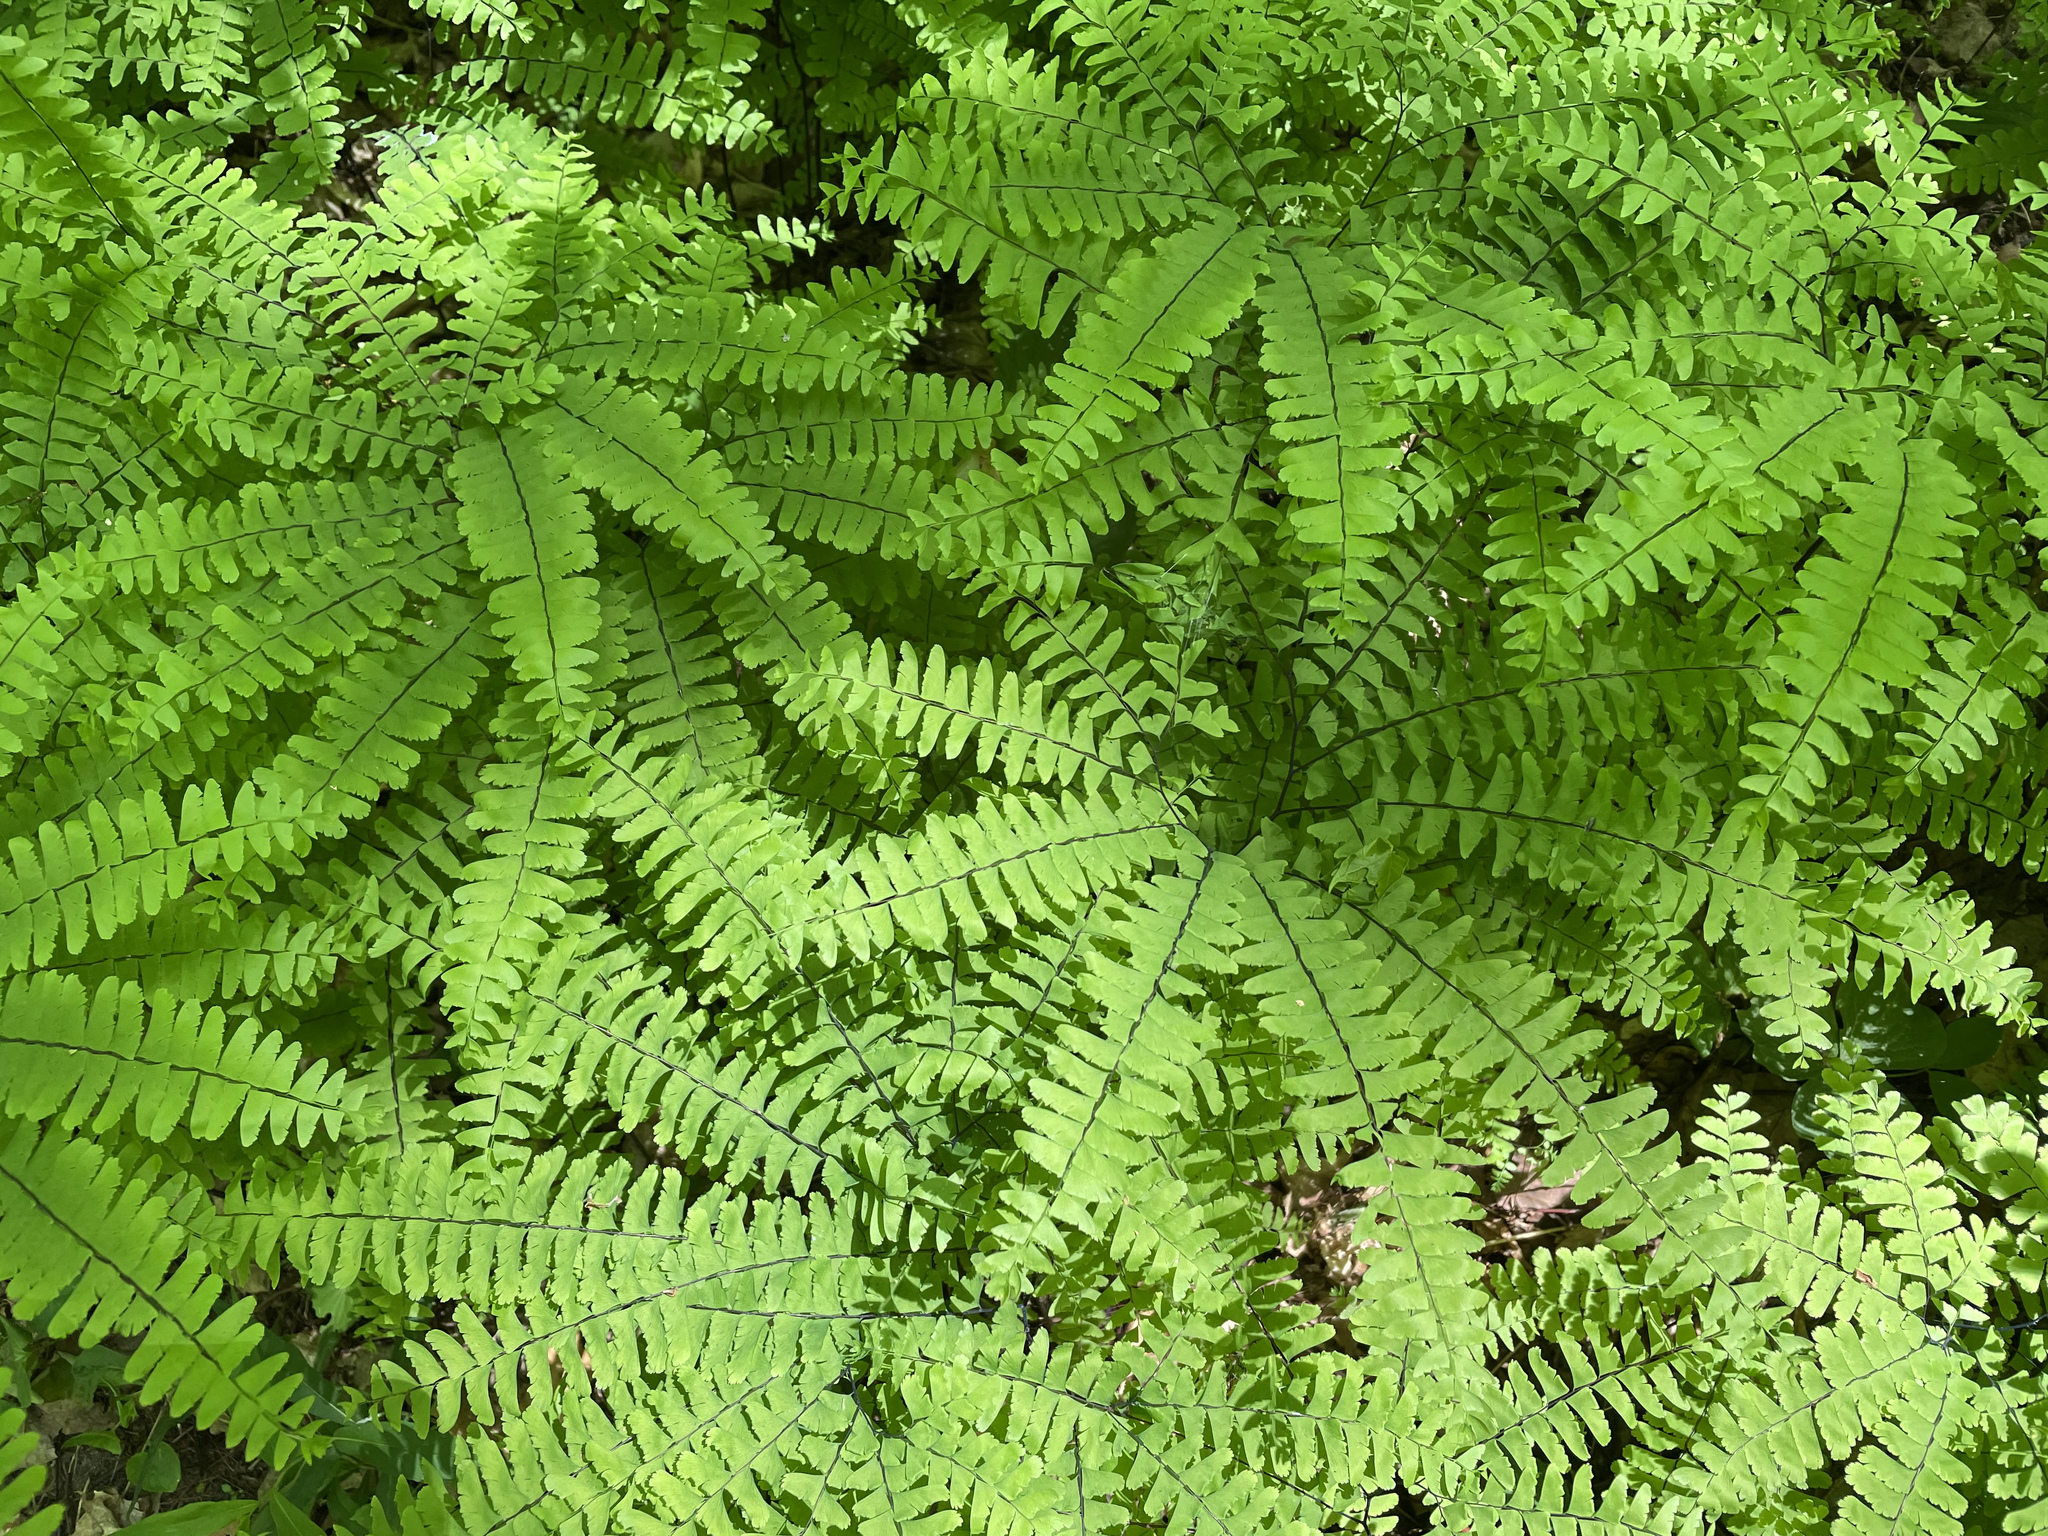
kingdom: Plantae
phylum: Tracheophyta
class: Polypodiopsida
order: Polypodiales
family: Pteridaceae
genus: Adiantum
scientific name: Adiantum pedatum
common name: Five-finger fern
